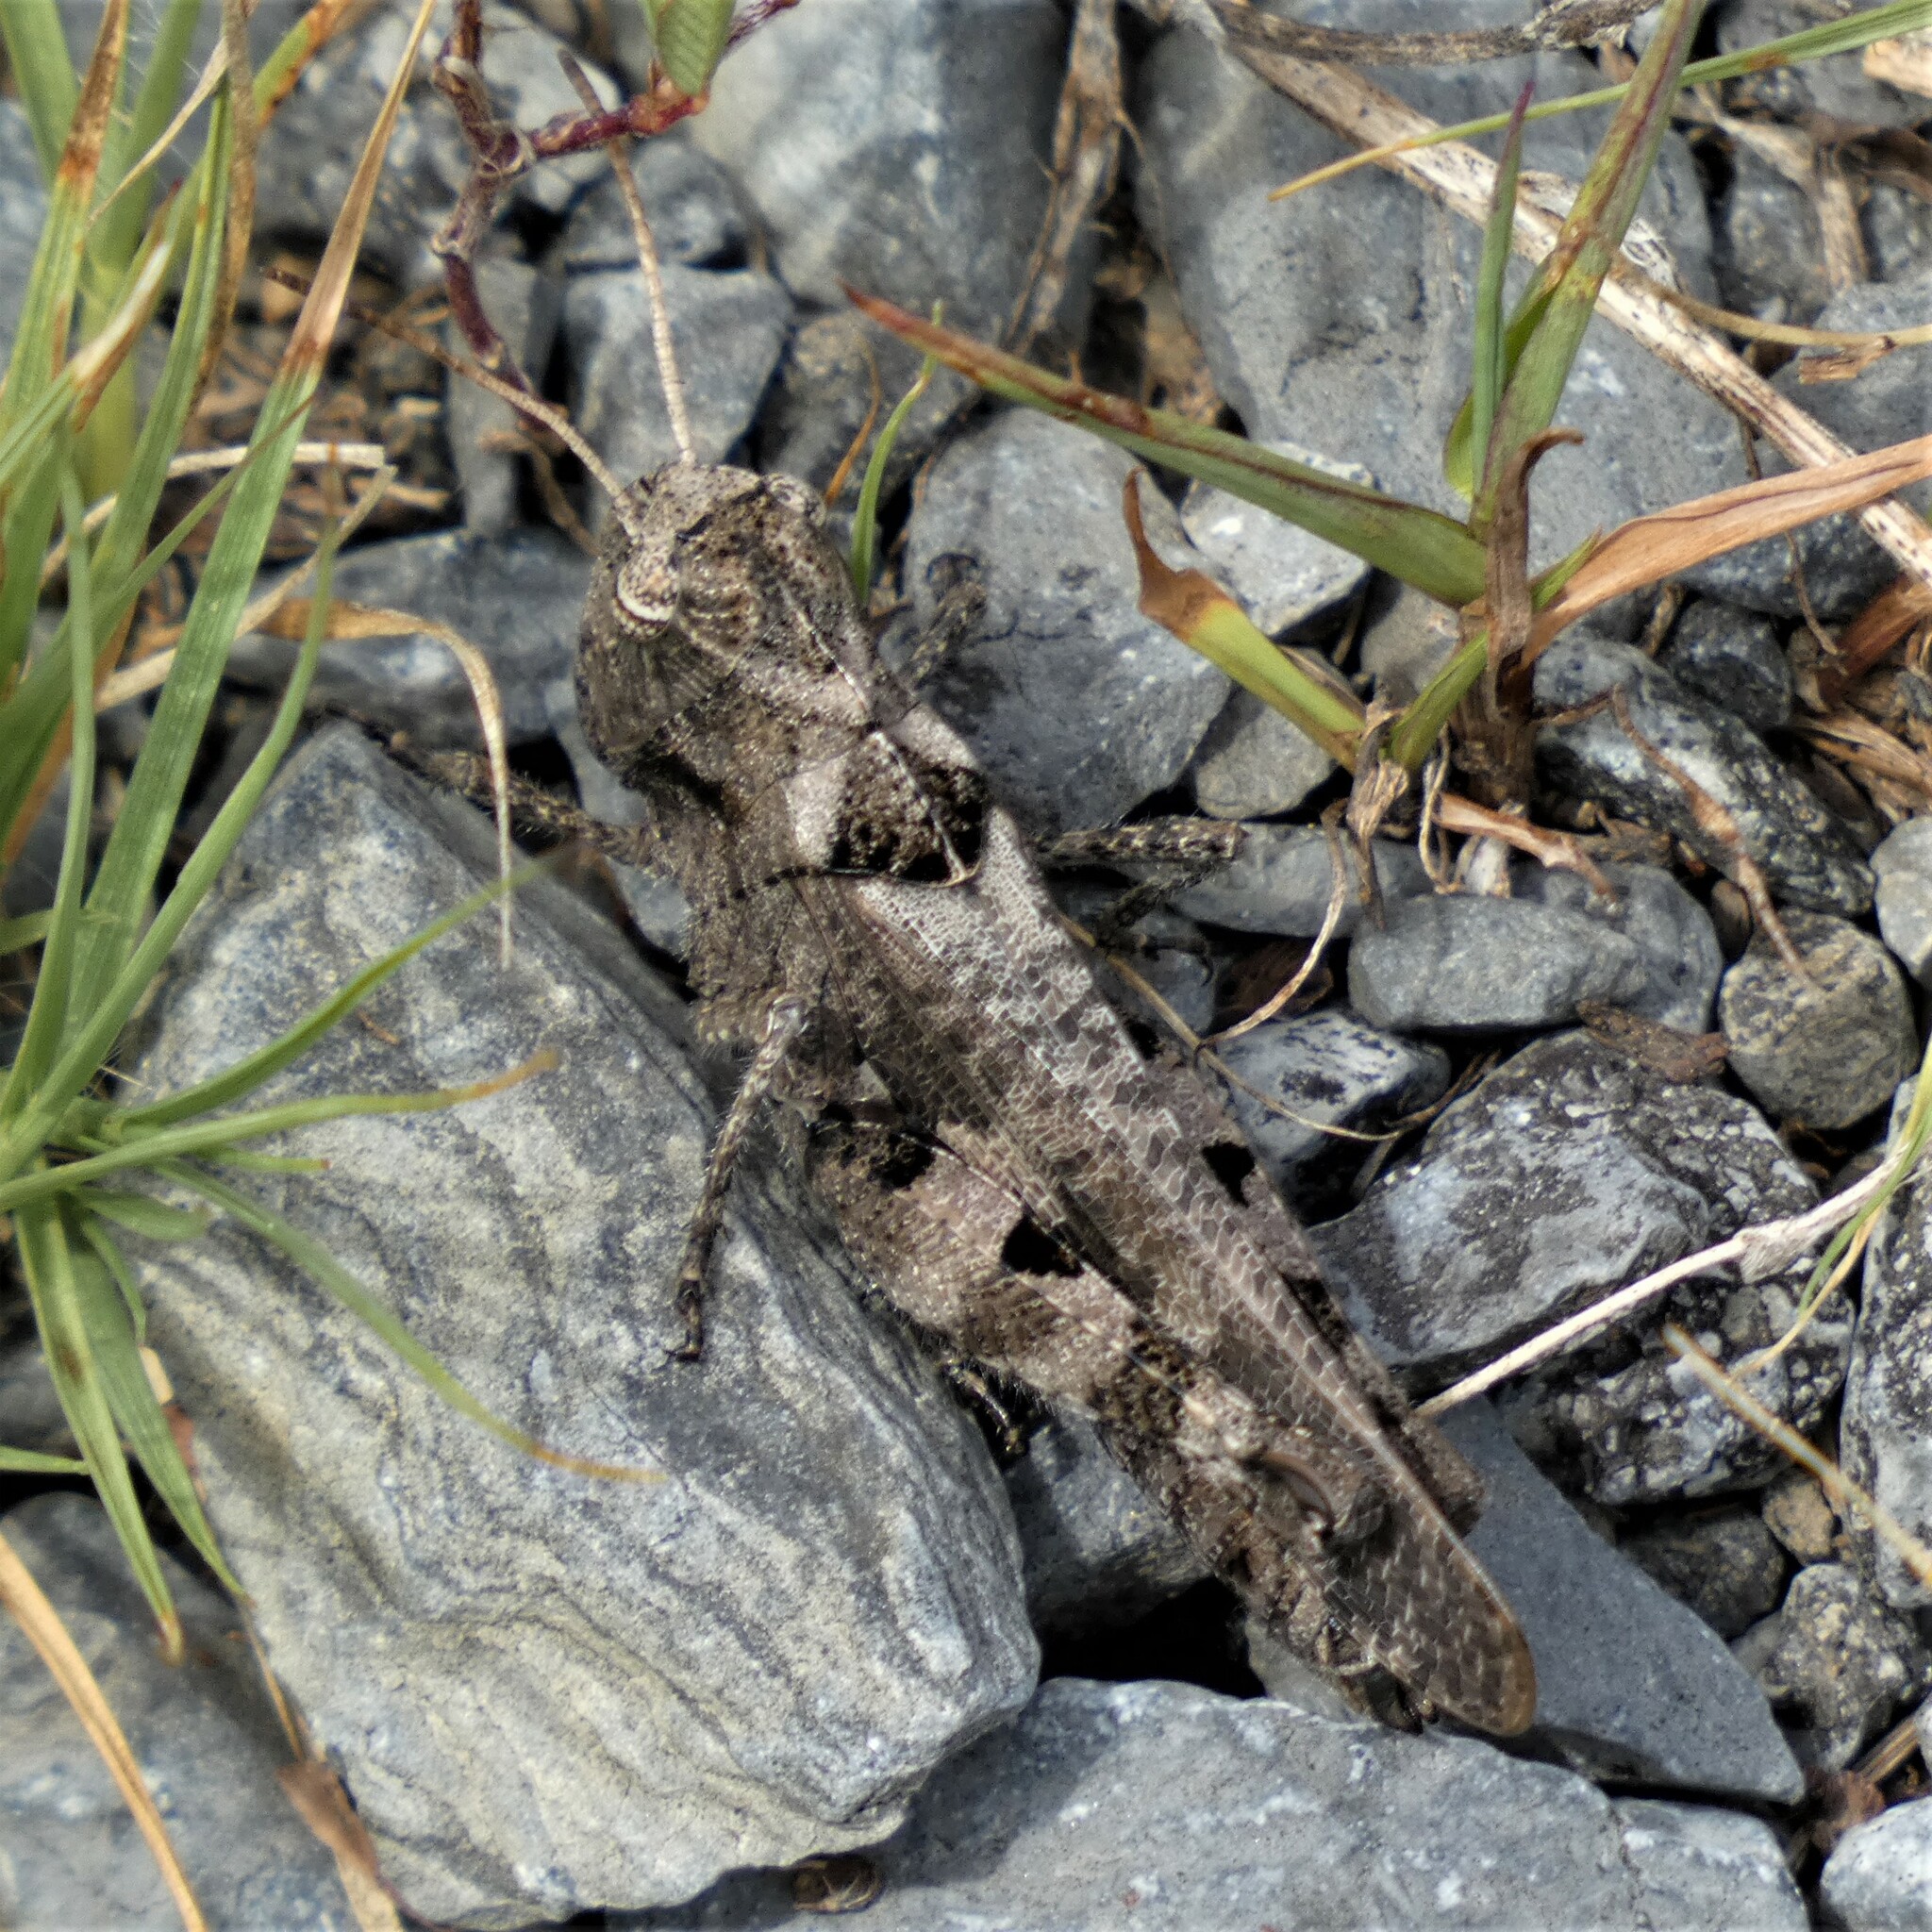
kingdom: Animalia
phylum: Arthropoda
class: Insecta
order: Orthoptera
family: Acrididae
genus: Encoptolophus
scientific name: Encoptolophus sordidus
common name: Dusky grasshopper
